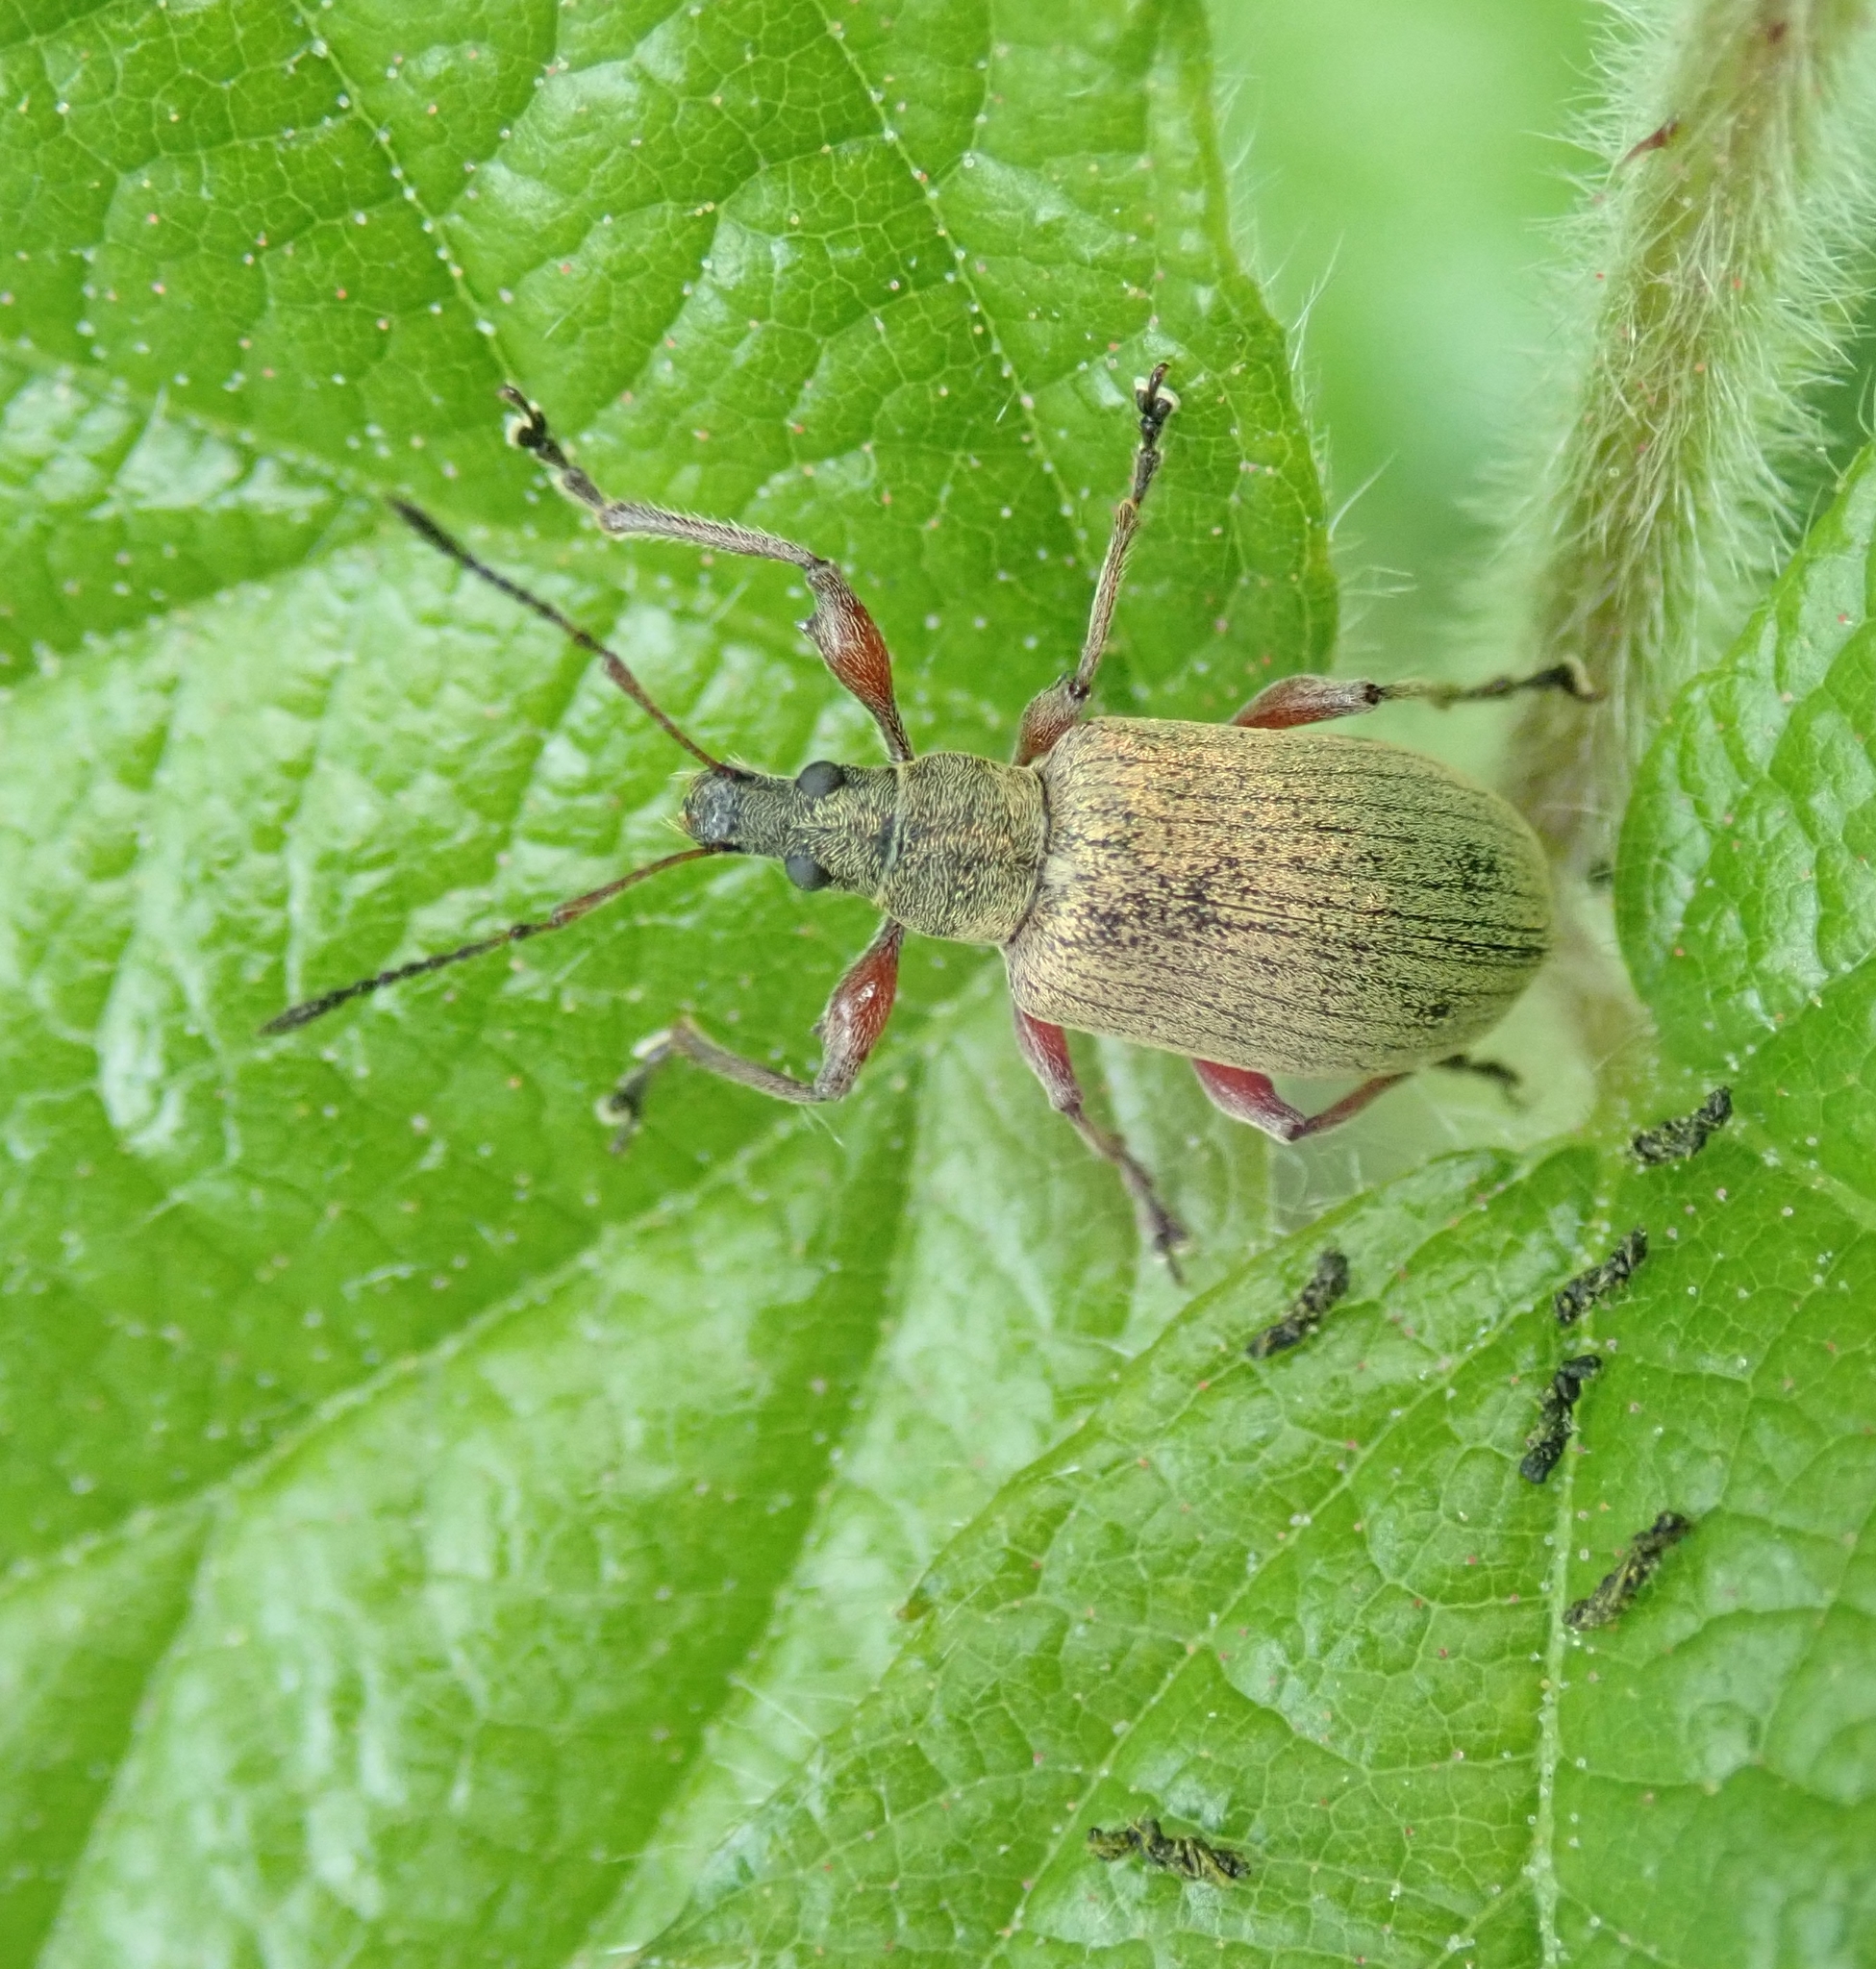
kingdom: Animalia
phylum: Arthropoda
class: Insecta
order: Coleoptera
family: Curculionidae
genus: Phyllobius
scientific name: Phyllobius glaucus
